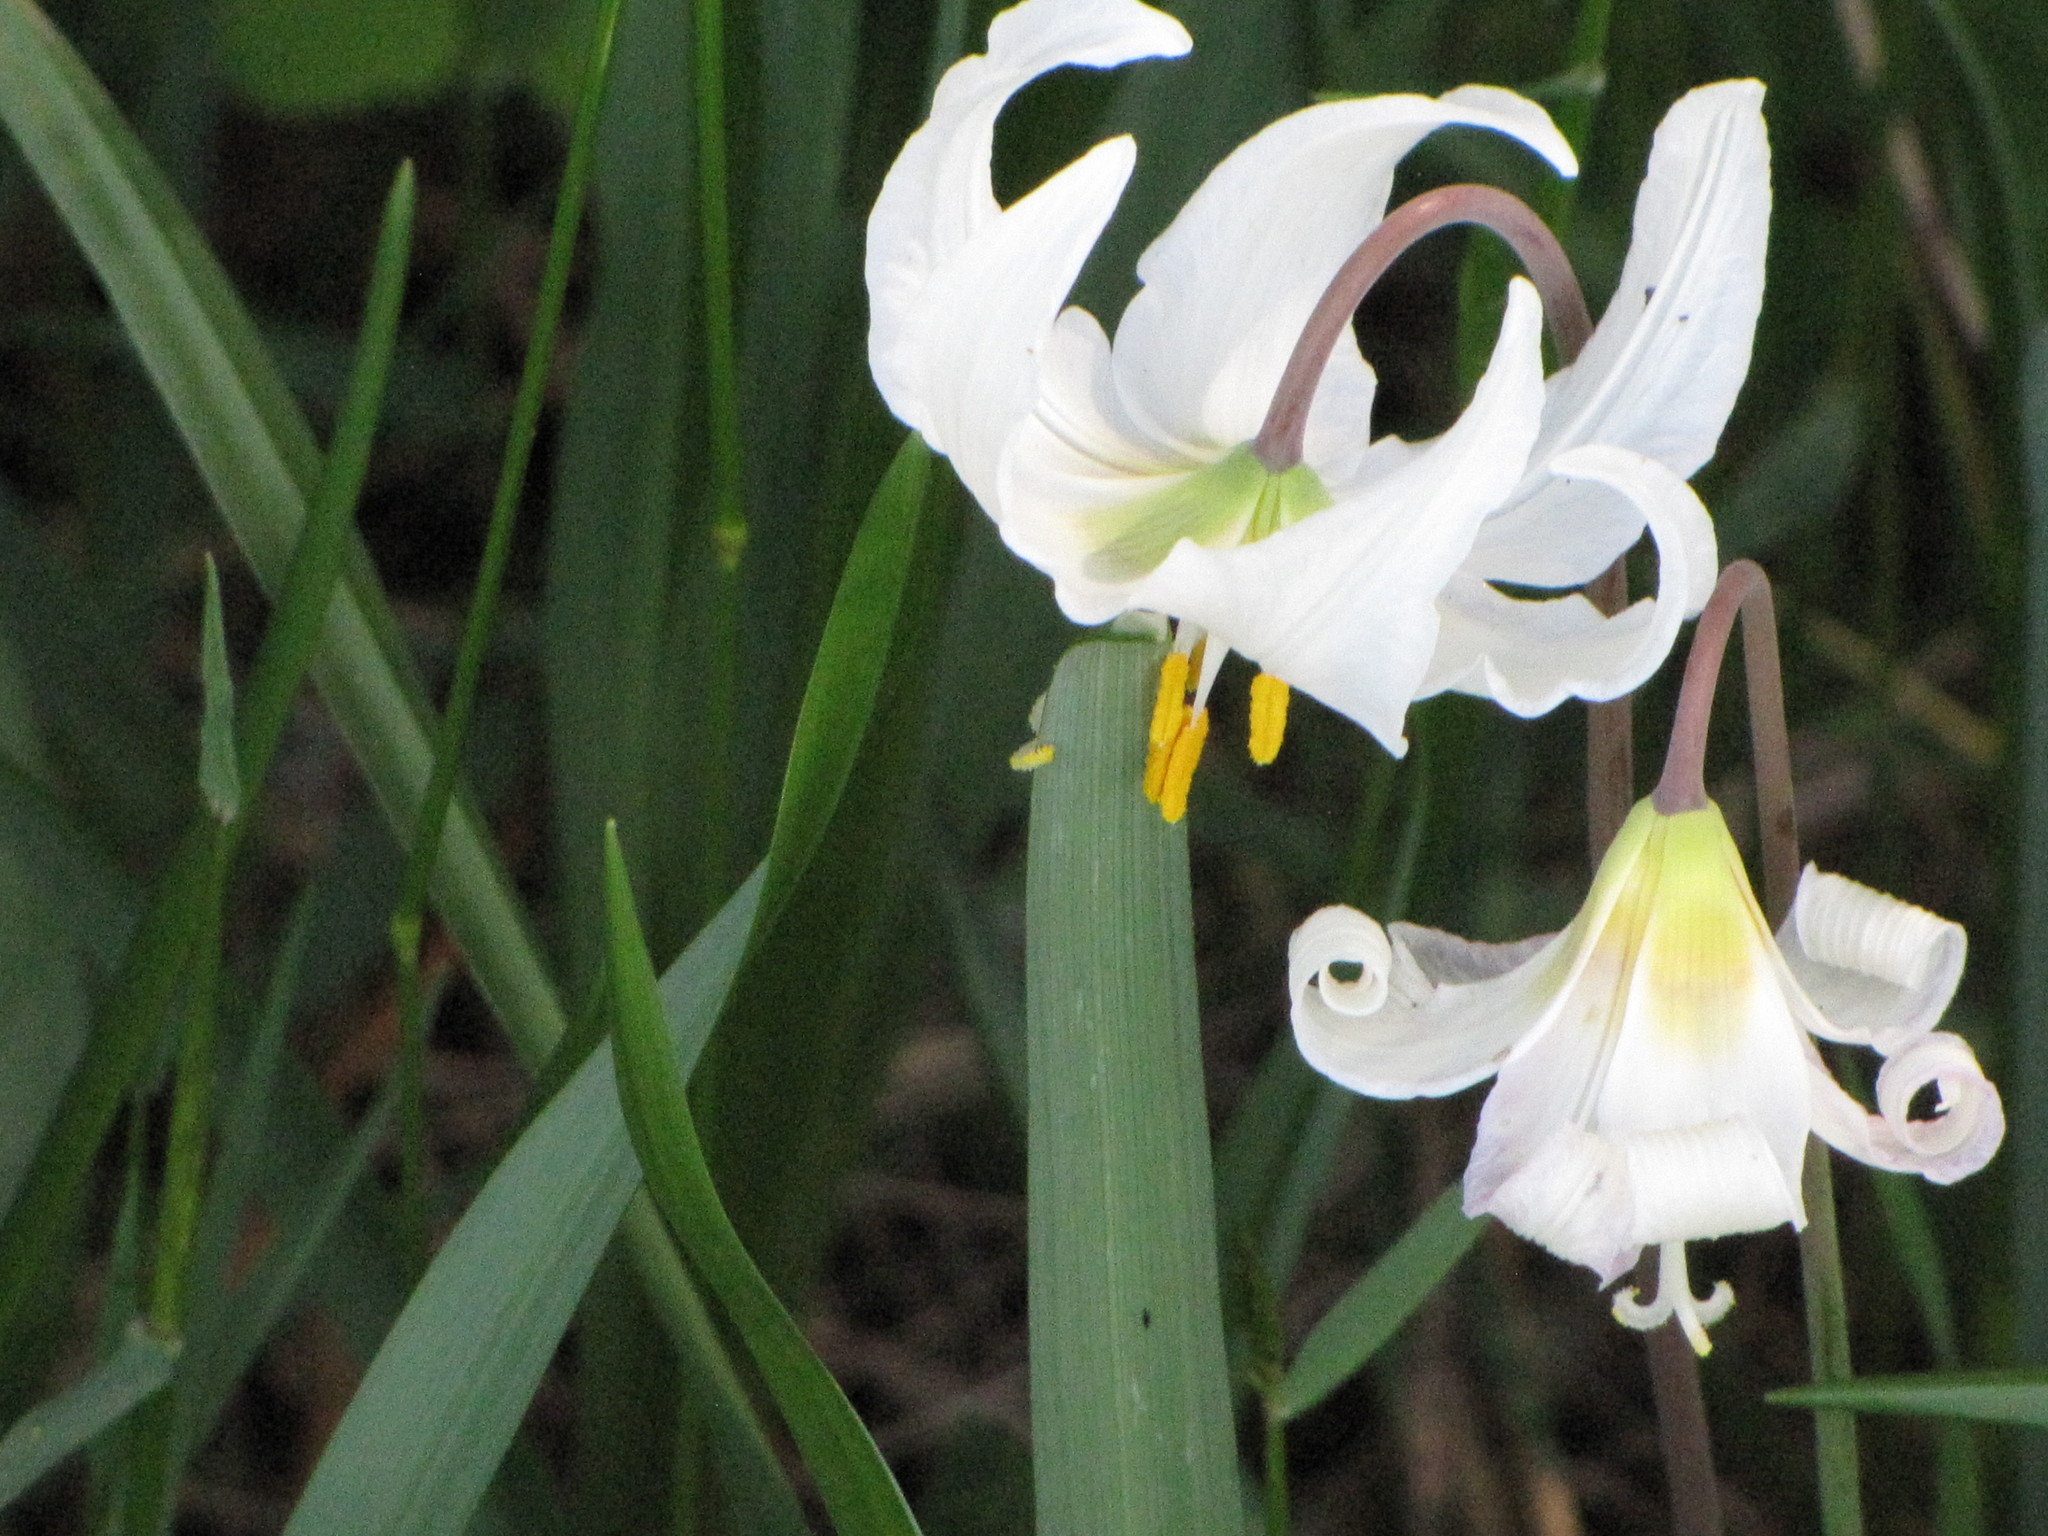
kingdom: Plantae
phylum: Tracheophyta
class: Liliopsida
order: Liliales
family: Liliaceae
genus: Erythronium
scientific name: Erythronium oregonum
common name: Giant adder's-tongue
